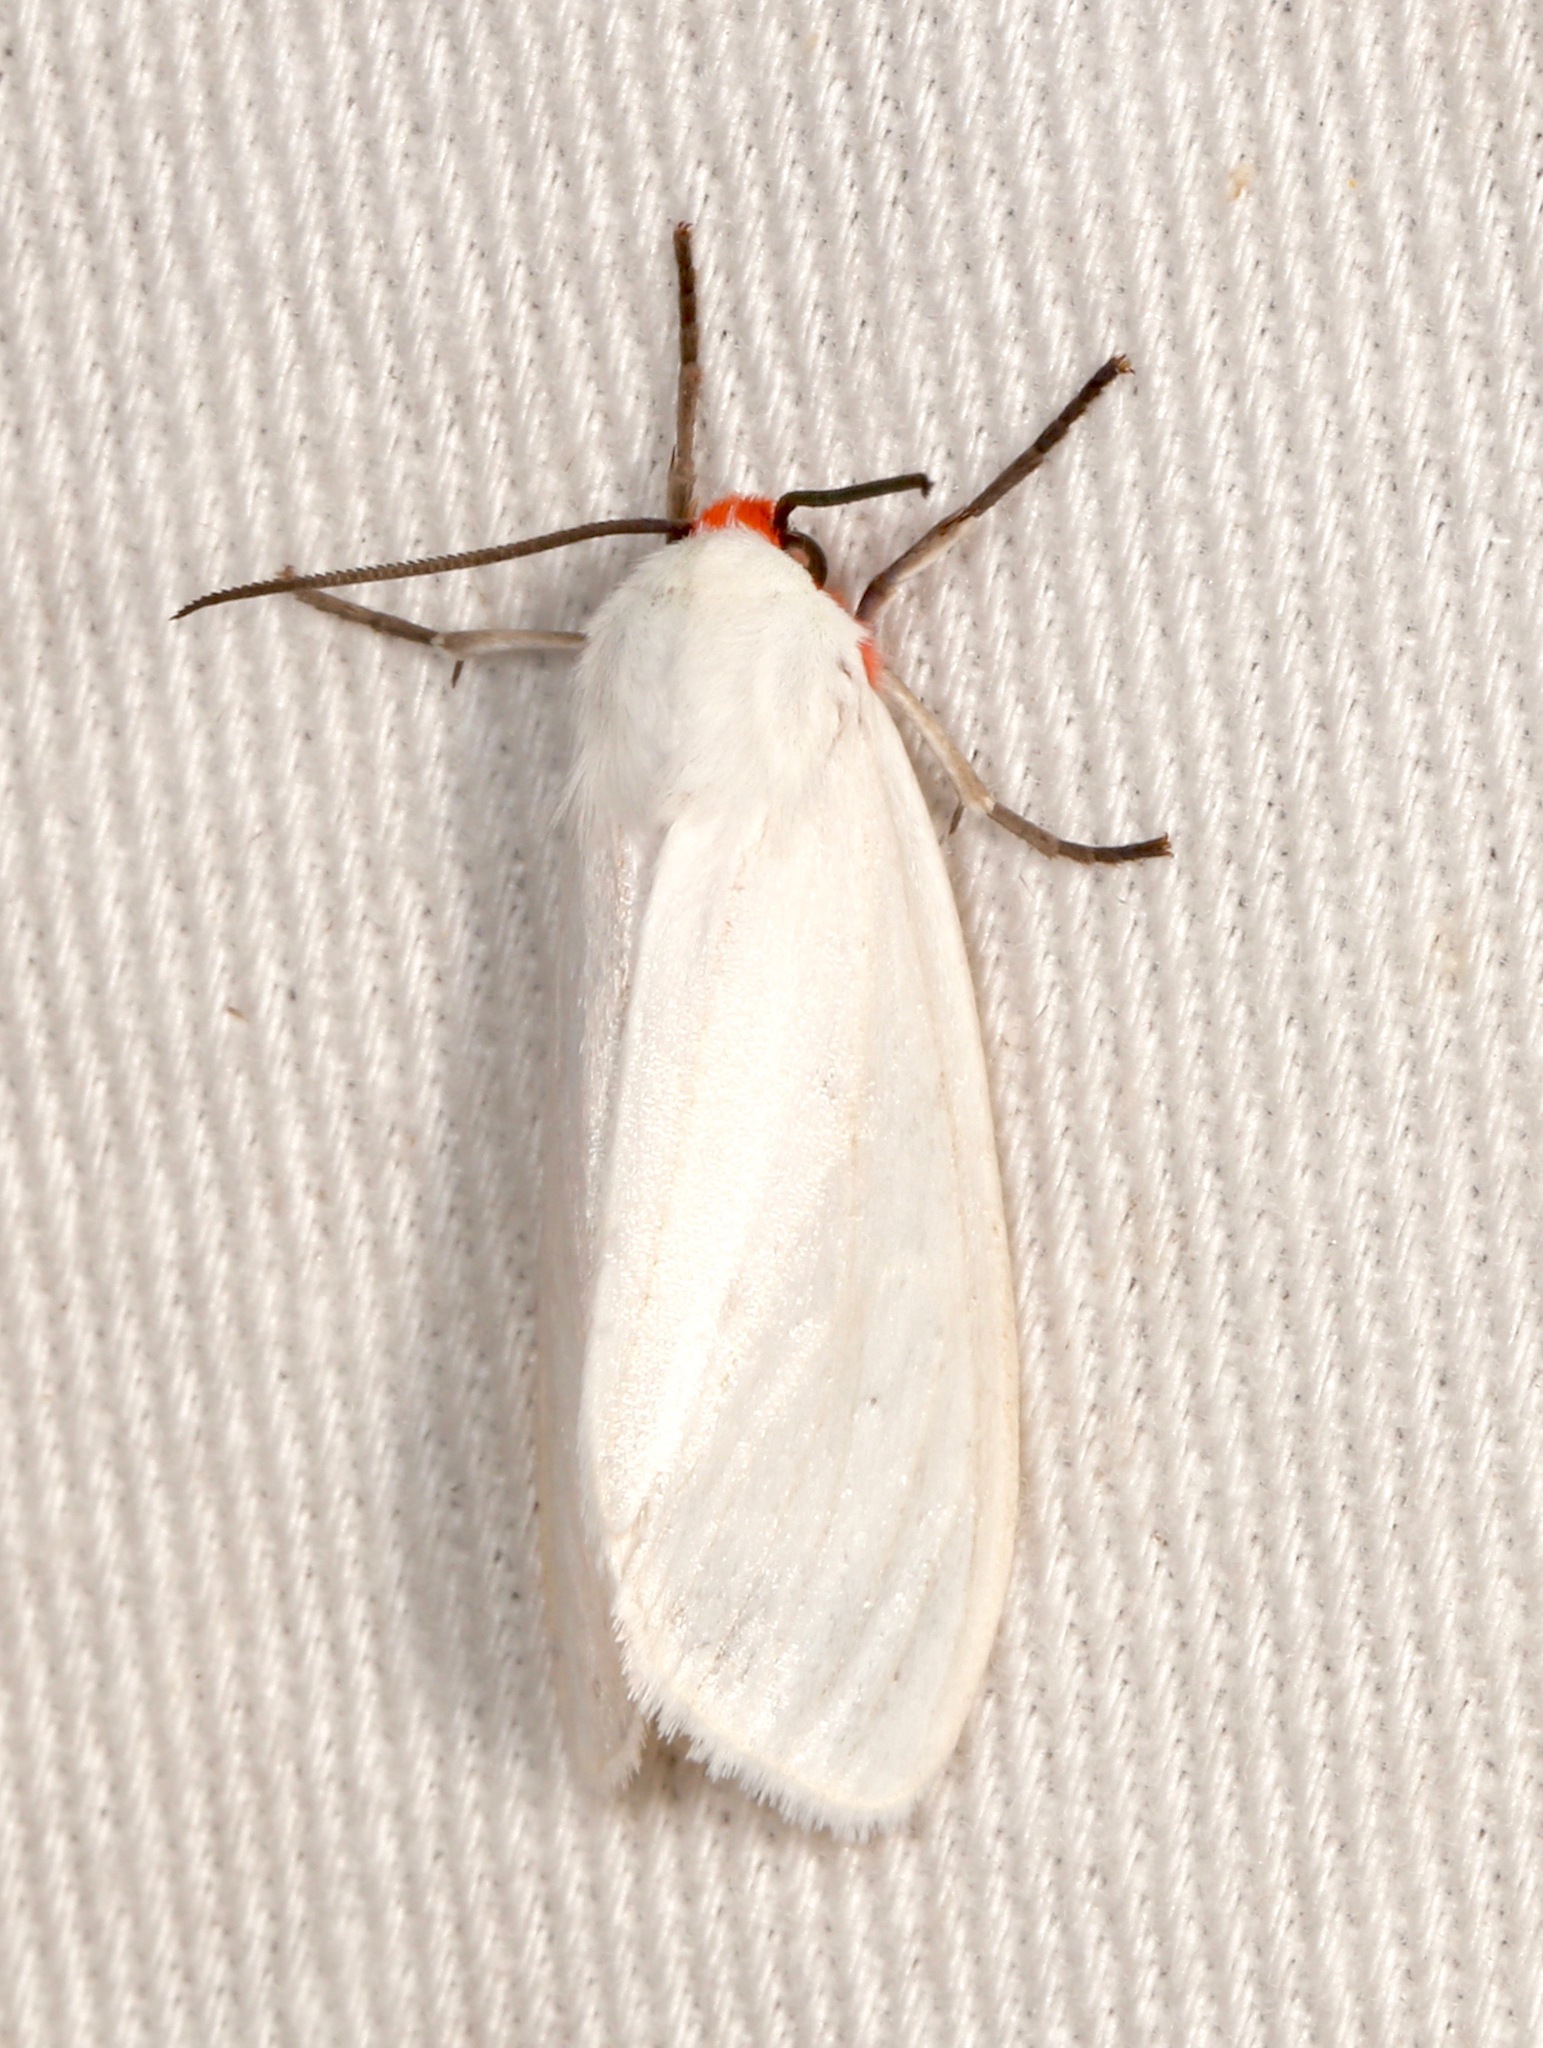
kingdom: Animalia
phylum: Arthropoda
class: Insecta
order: Lepidoptera
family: Erebidae
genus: Pygarctia
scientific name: Pygarctia roseicapitis
